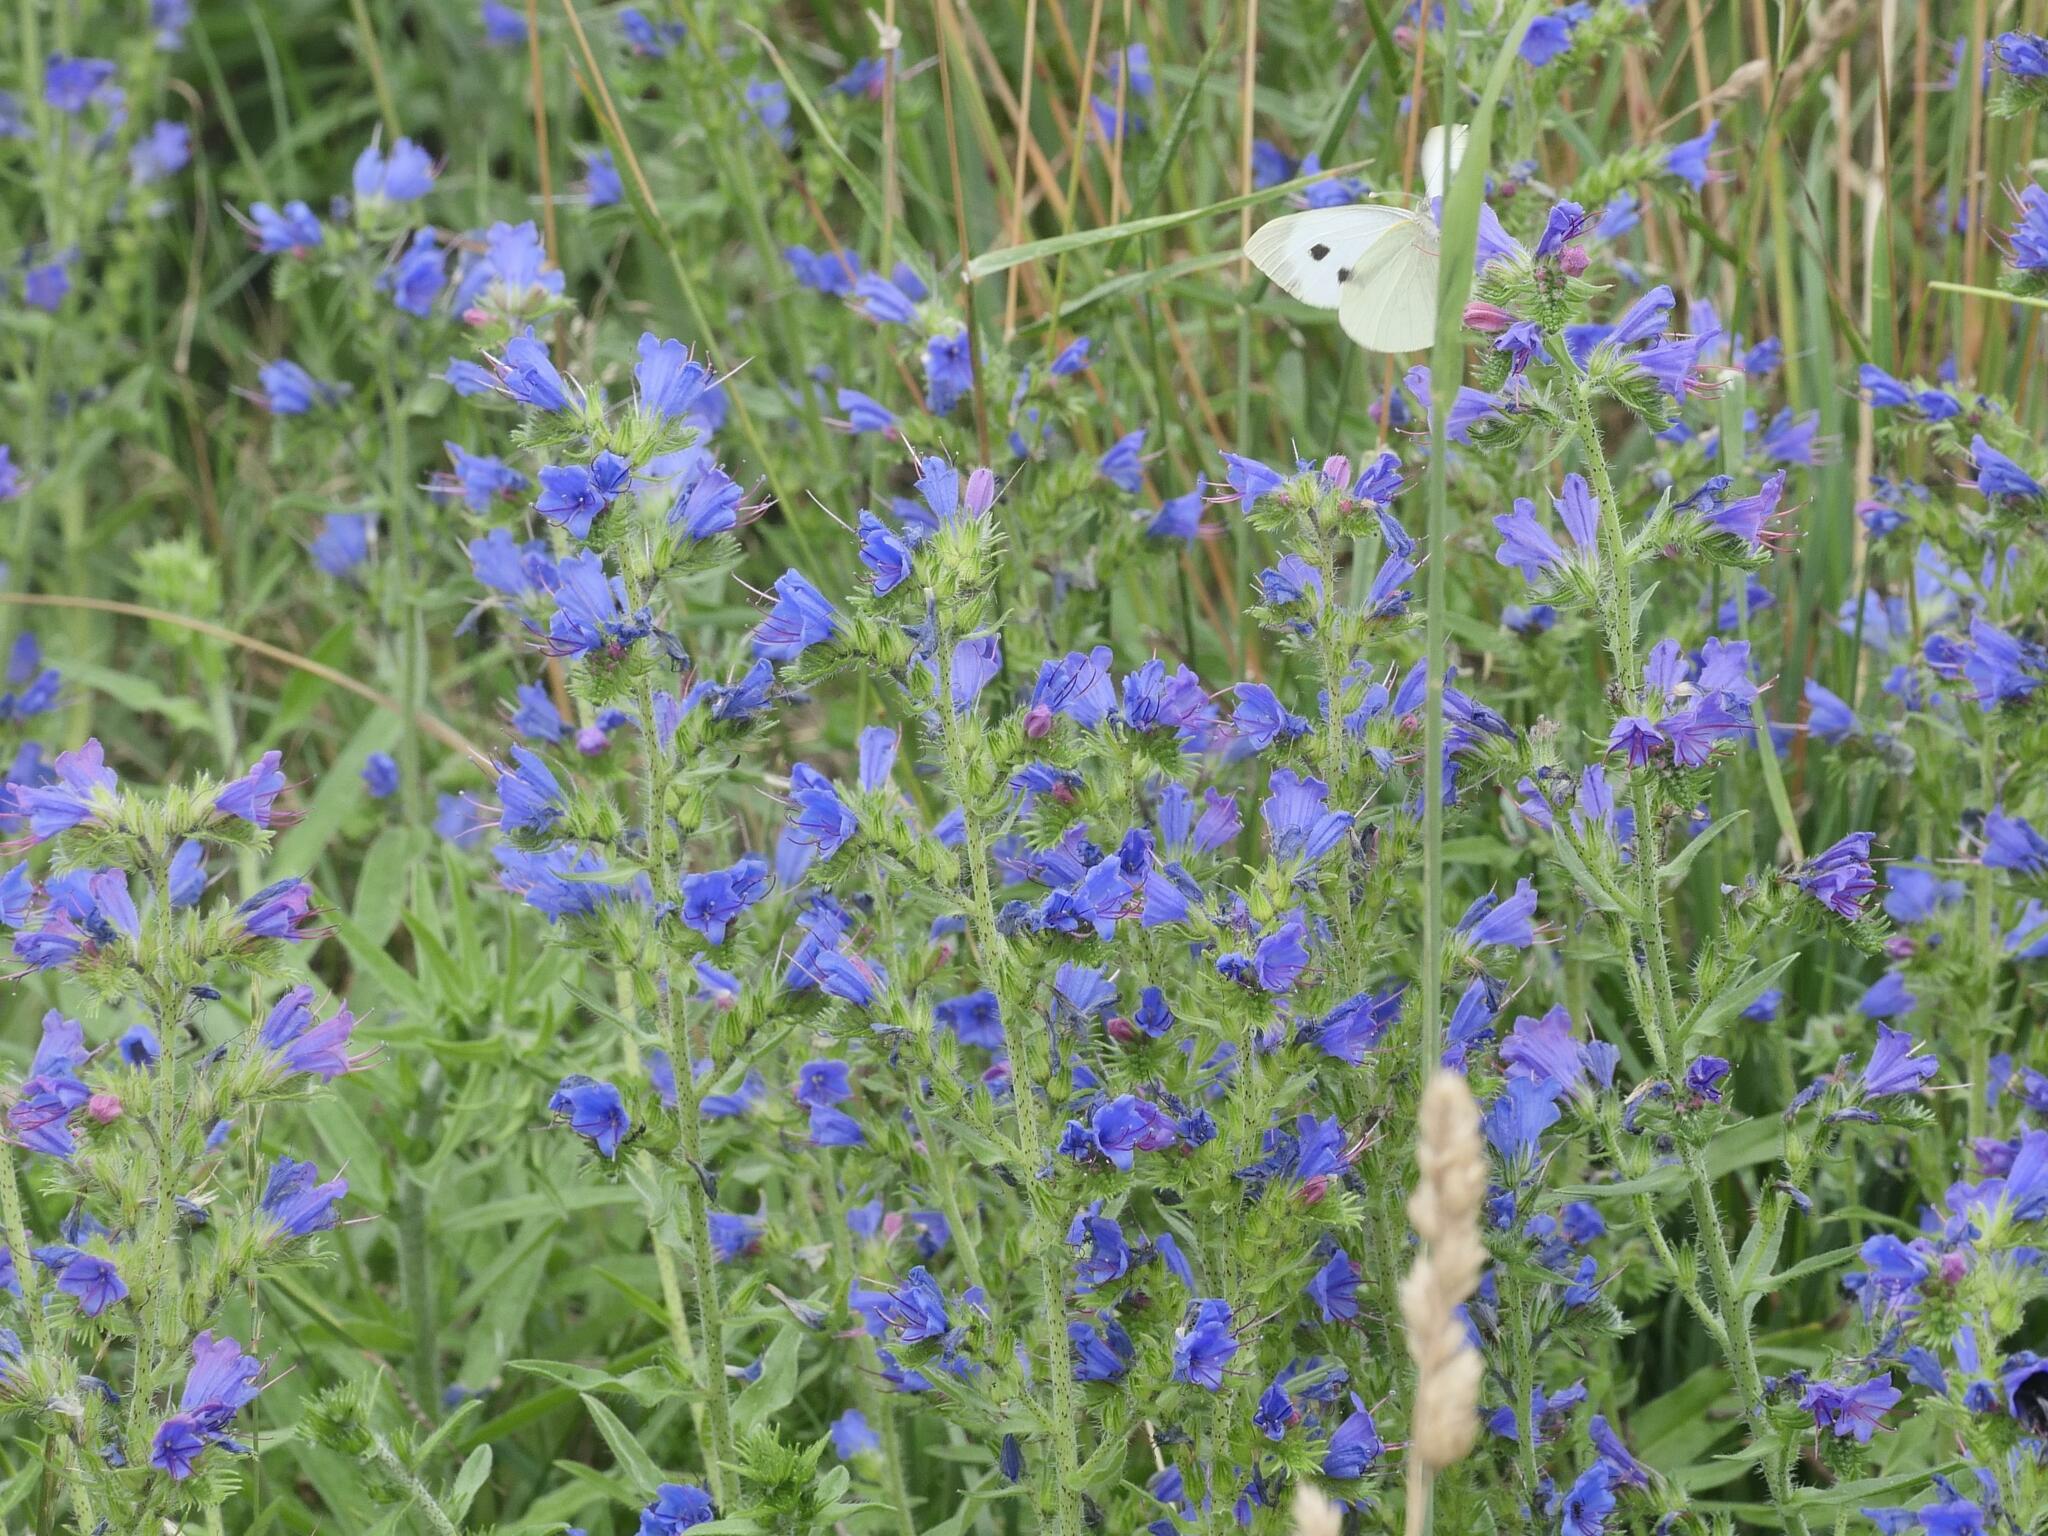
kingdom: Plantae
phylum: Tracheophyta
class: Magnoliopsida
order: Boraginales
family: Boraginaceae
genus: Echium
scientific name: Echium vulgare
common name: Common viper's bugloss
